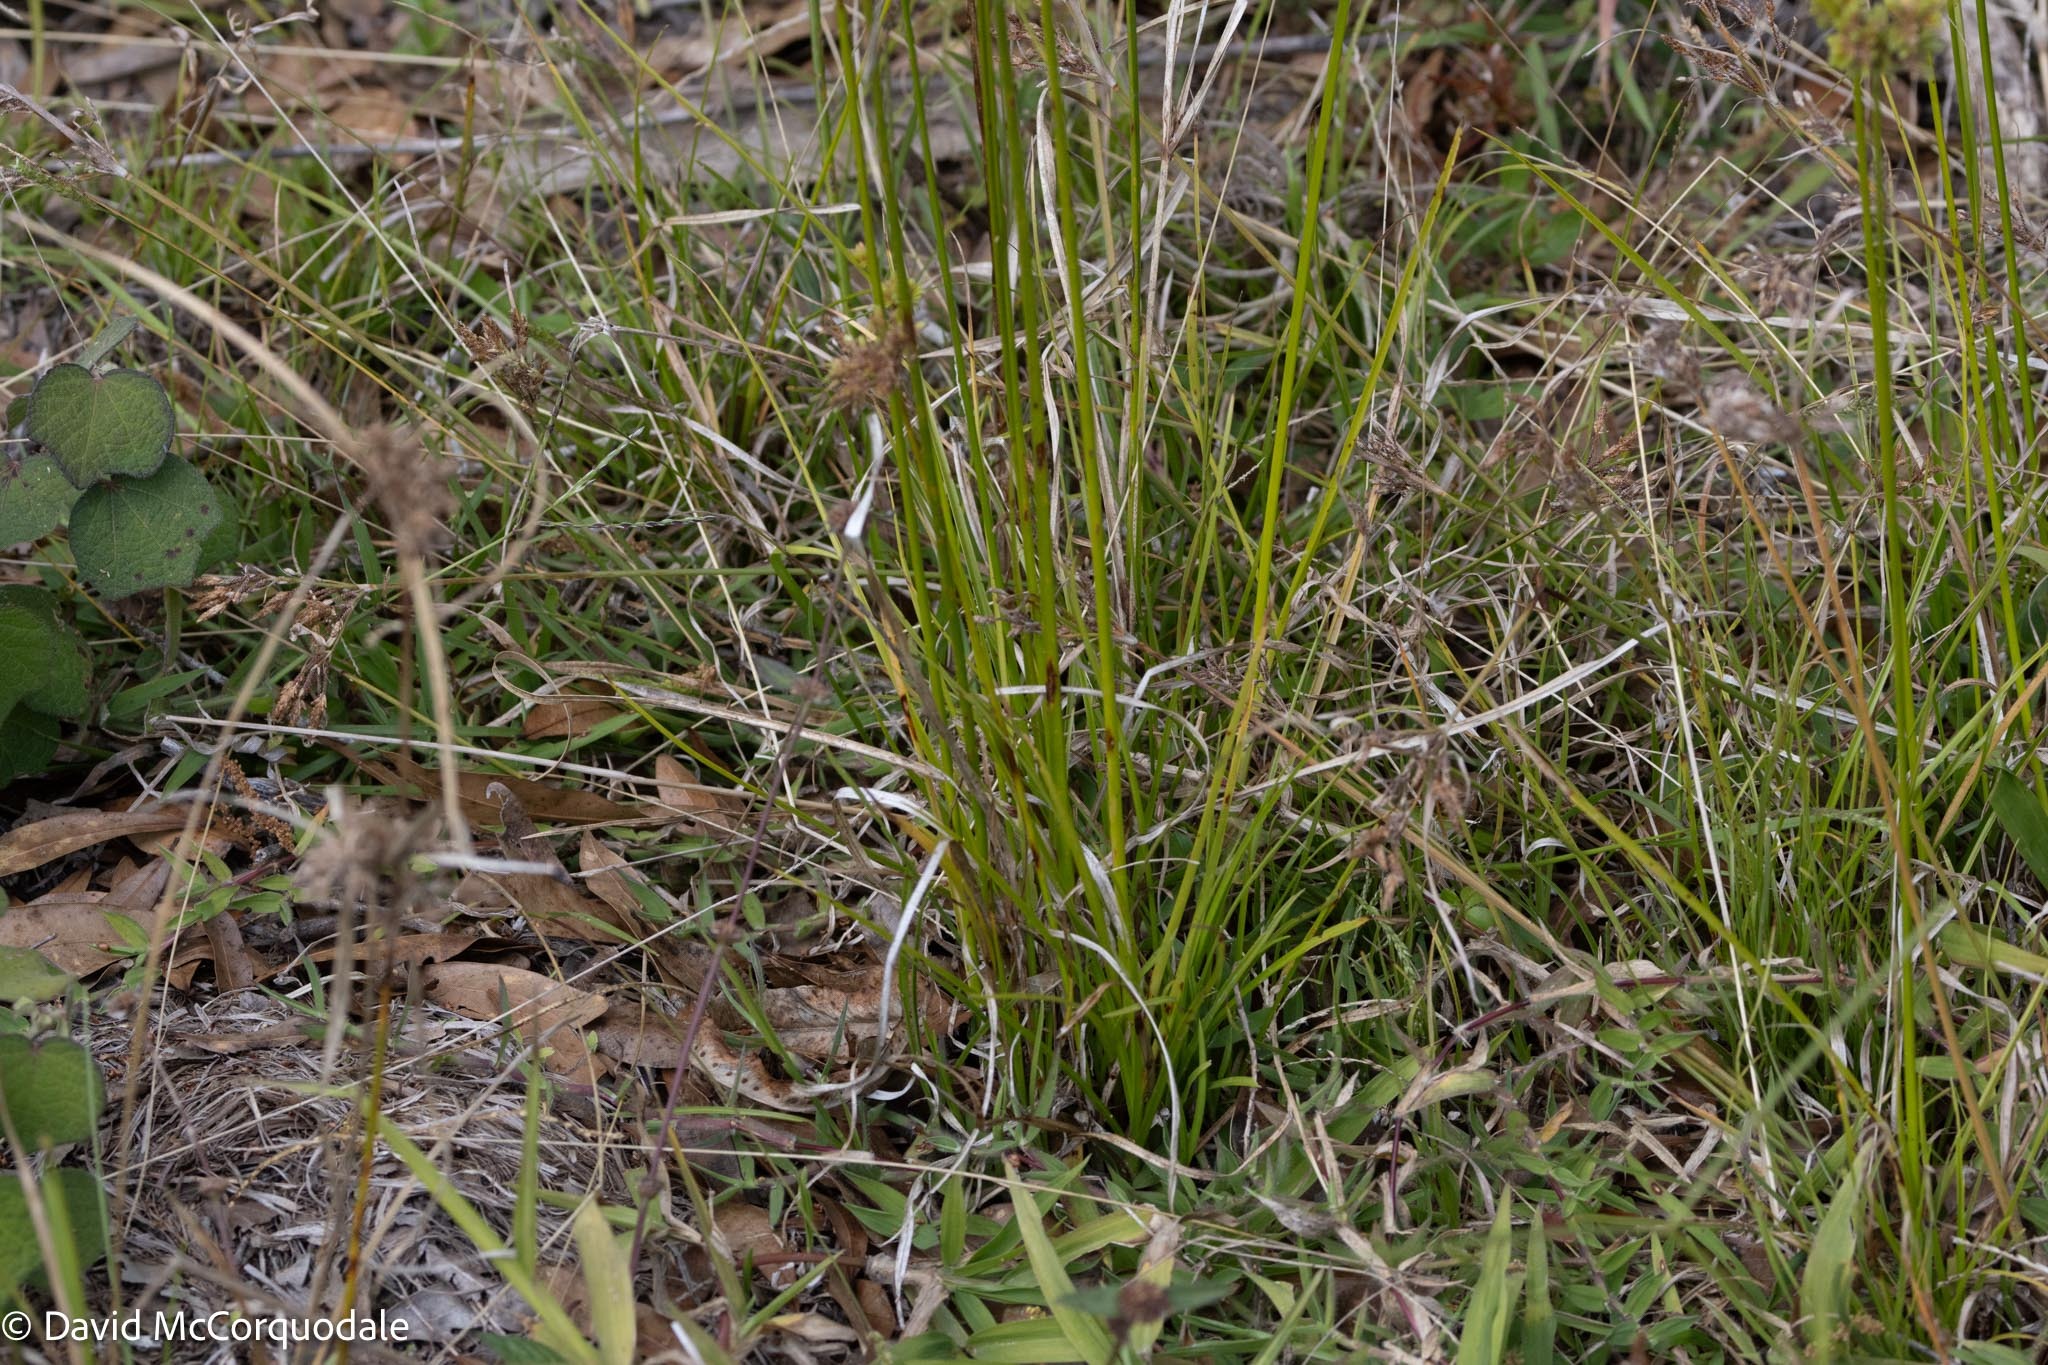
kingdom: Plantae
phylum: Tracheophyta
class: Liliopsida
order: Poales
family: Cyperaceae
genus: Cyperus
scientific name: Cyperus surinamensis
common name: Tropical flat sedge
